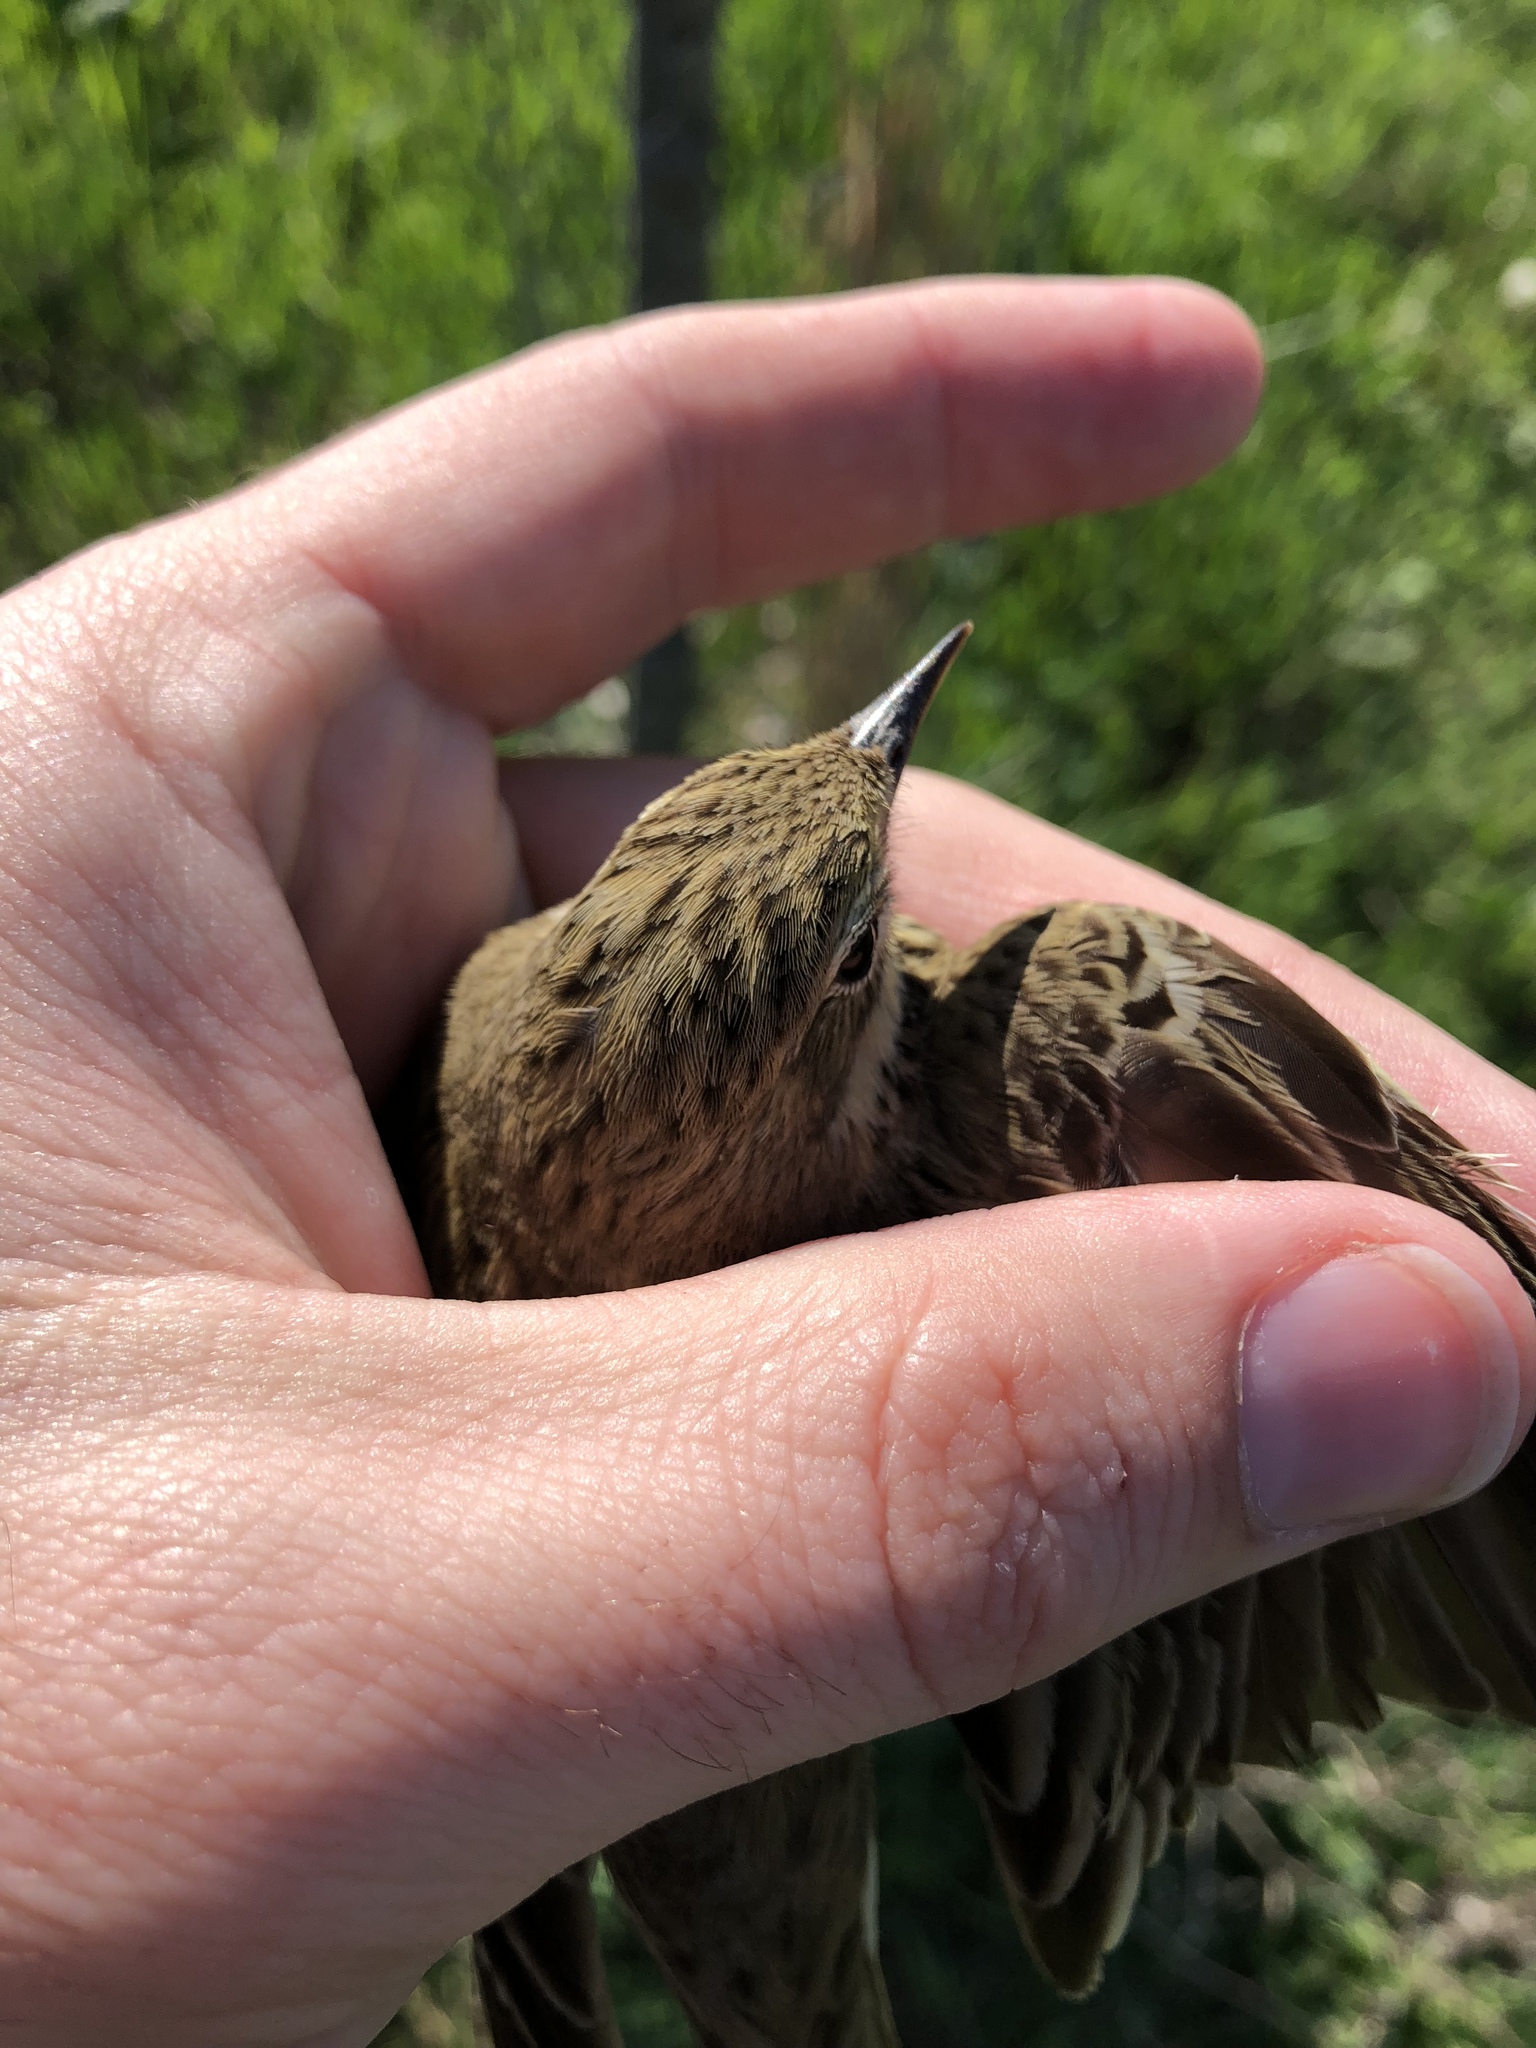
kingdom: Animalia
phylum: Chordata
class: Aves
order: Passeriformes
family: Motacillidae
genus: Anthus
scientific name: Anthus trivialis
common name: Tree pipit
